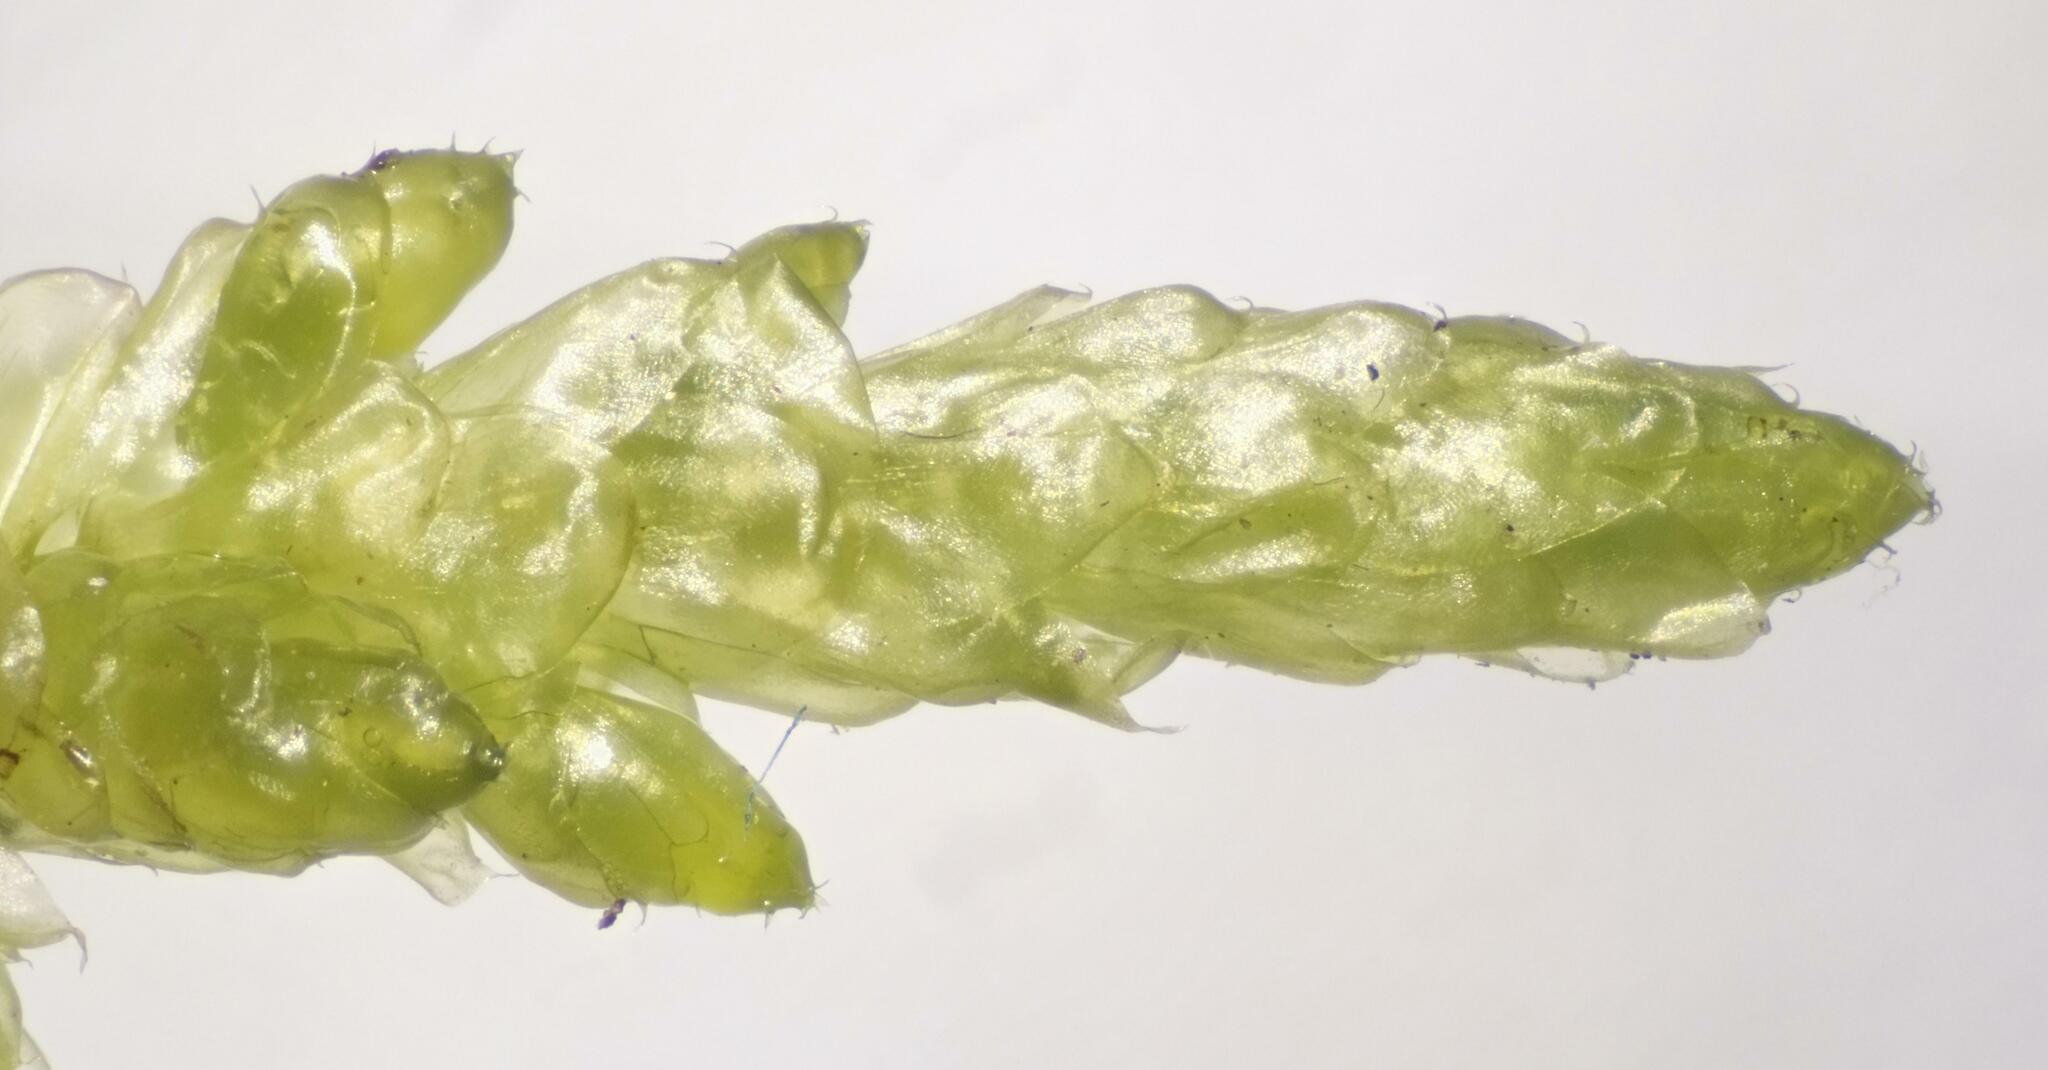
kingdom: Plantae
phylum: Bryophyta
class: Bryopsida
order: Hypnales
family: Brachytheciaceae
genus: Pseudoscleropodium
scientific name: Pseudoscleropodium purum
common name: Neat feather-moss
